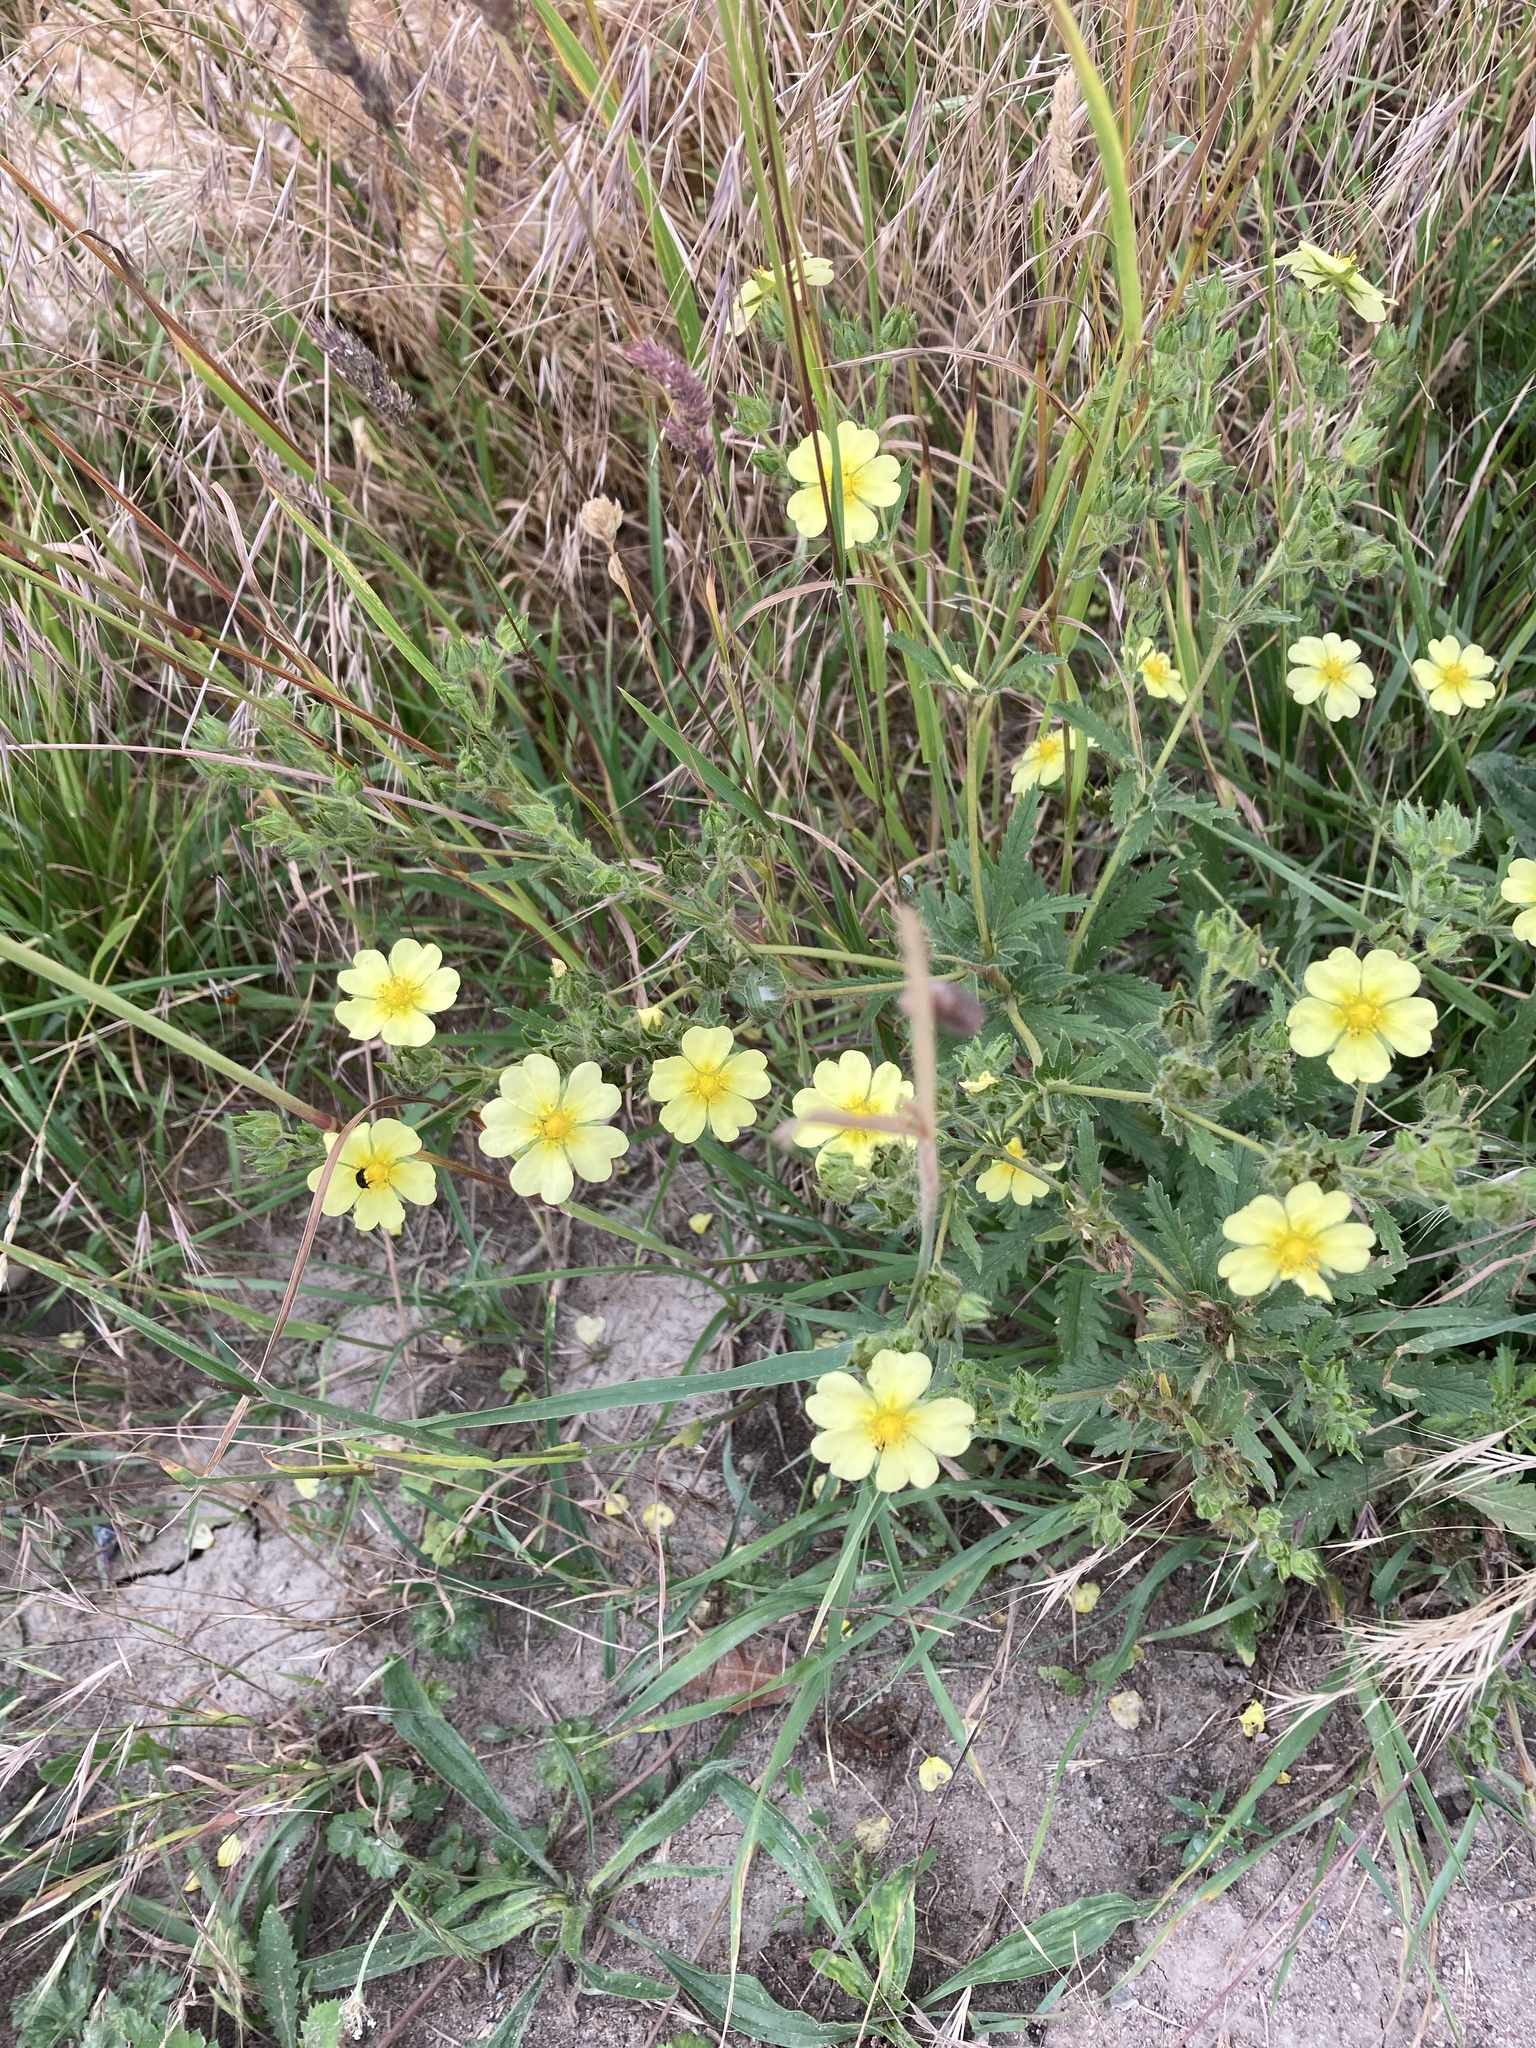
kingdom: Plantae
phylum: Tracheophyta
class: Magnoliopsida
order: Rosales
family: Rosaceae
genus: Potentilla
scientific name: Potentilla recta
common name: Sulphur cinquefoil
